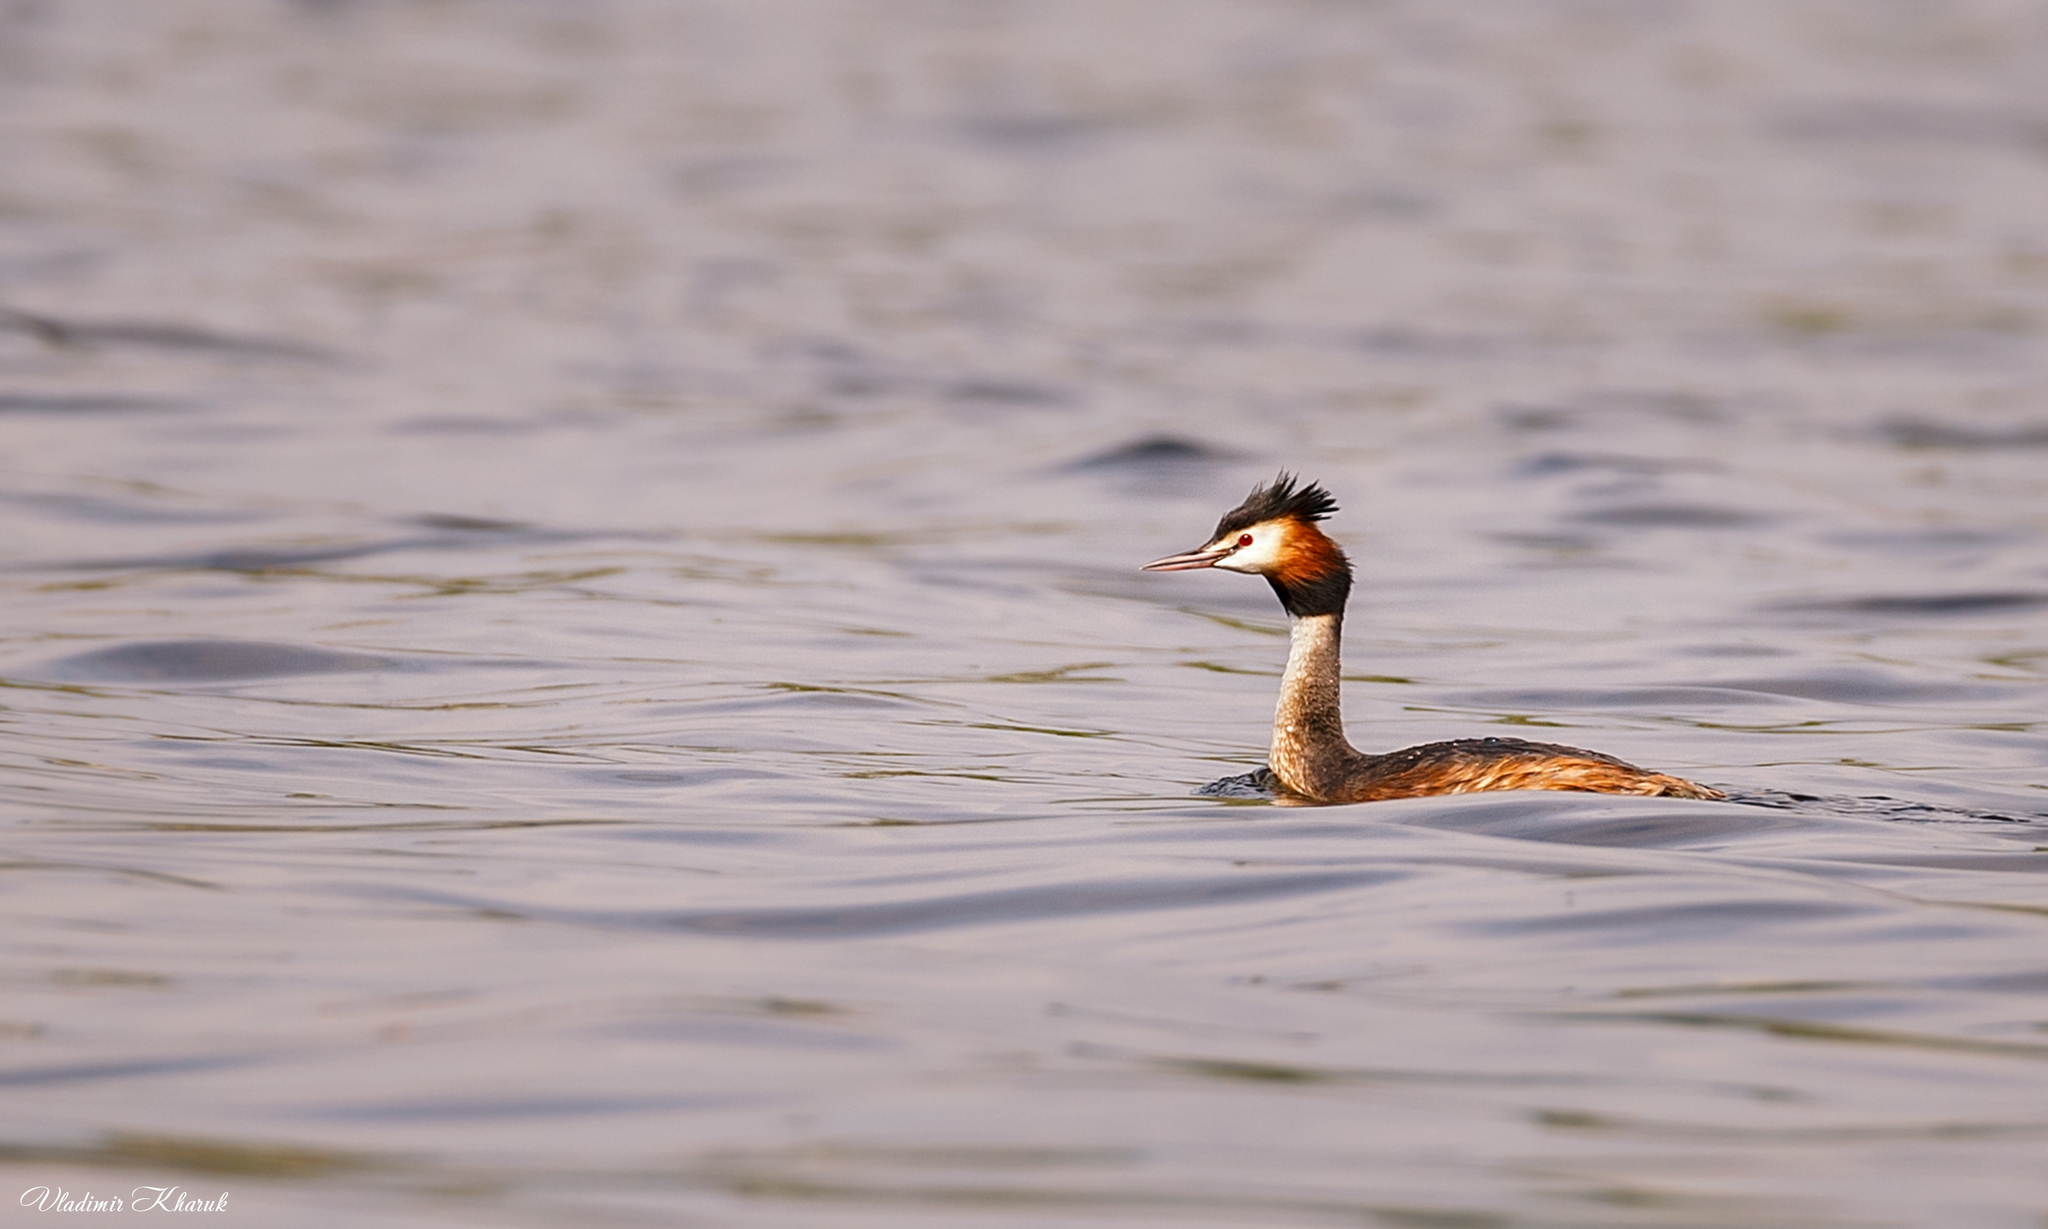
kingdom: Animalia
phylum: Chordata
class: Aves
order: Podicipediformes
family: Podicipedidae
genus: Podiceps
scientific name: Podiceps cristatus
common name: Great crested grebe
